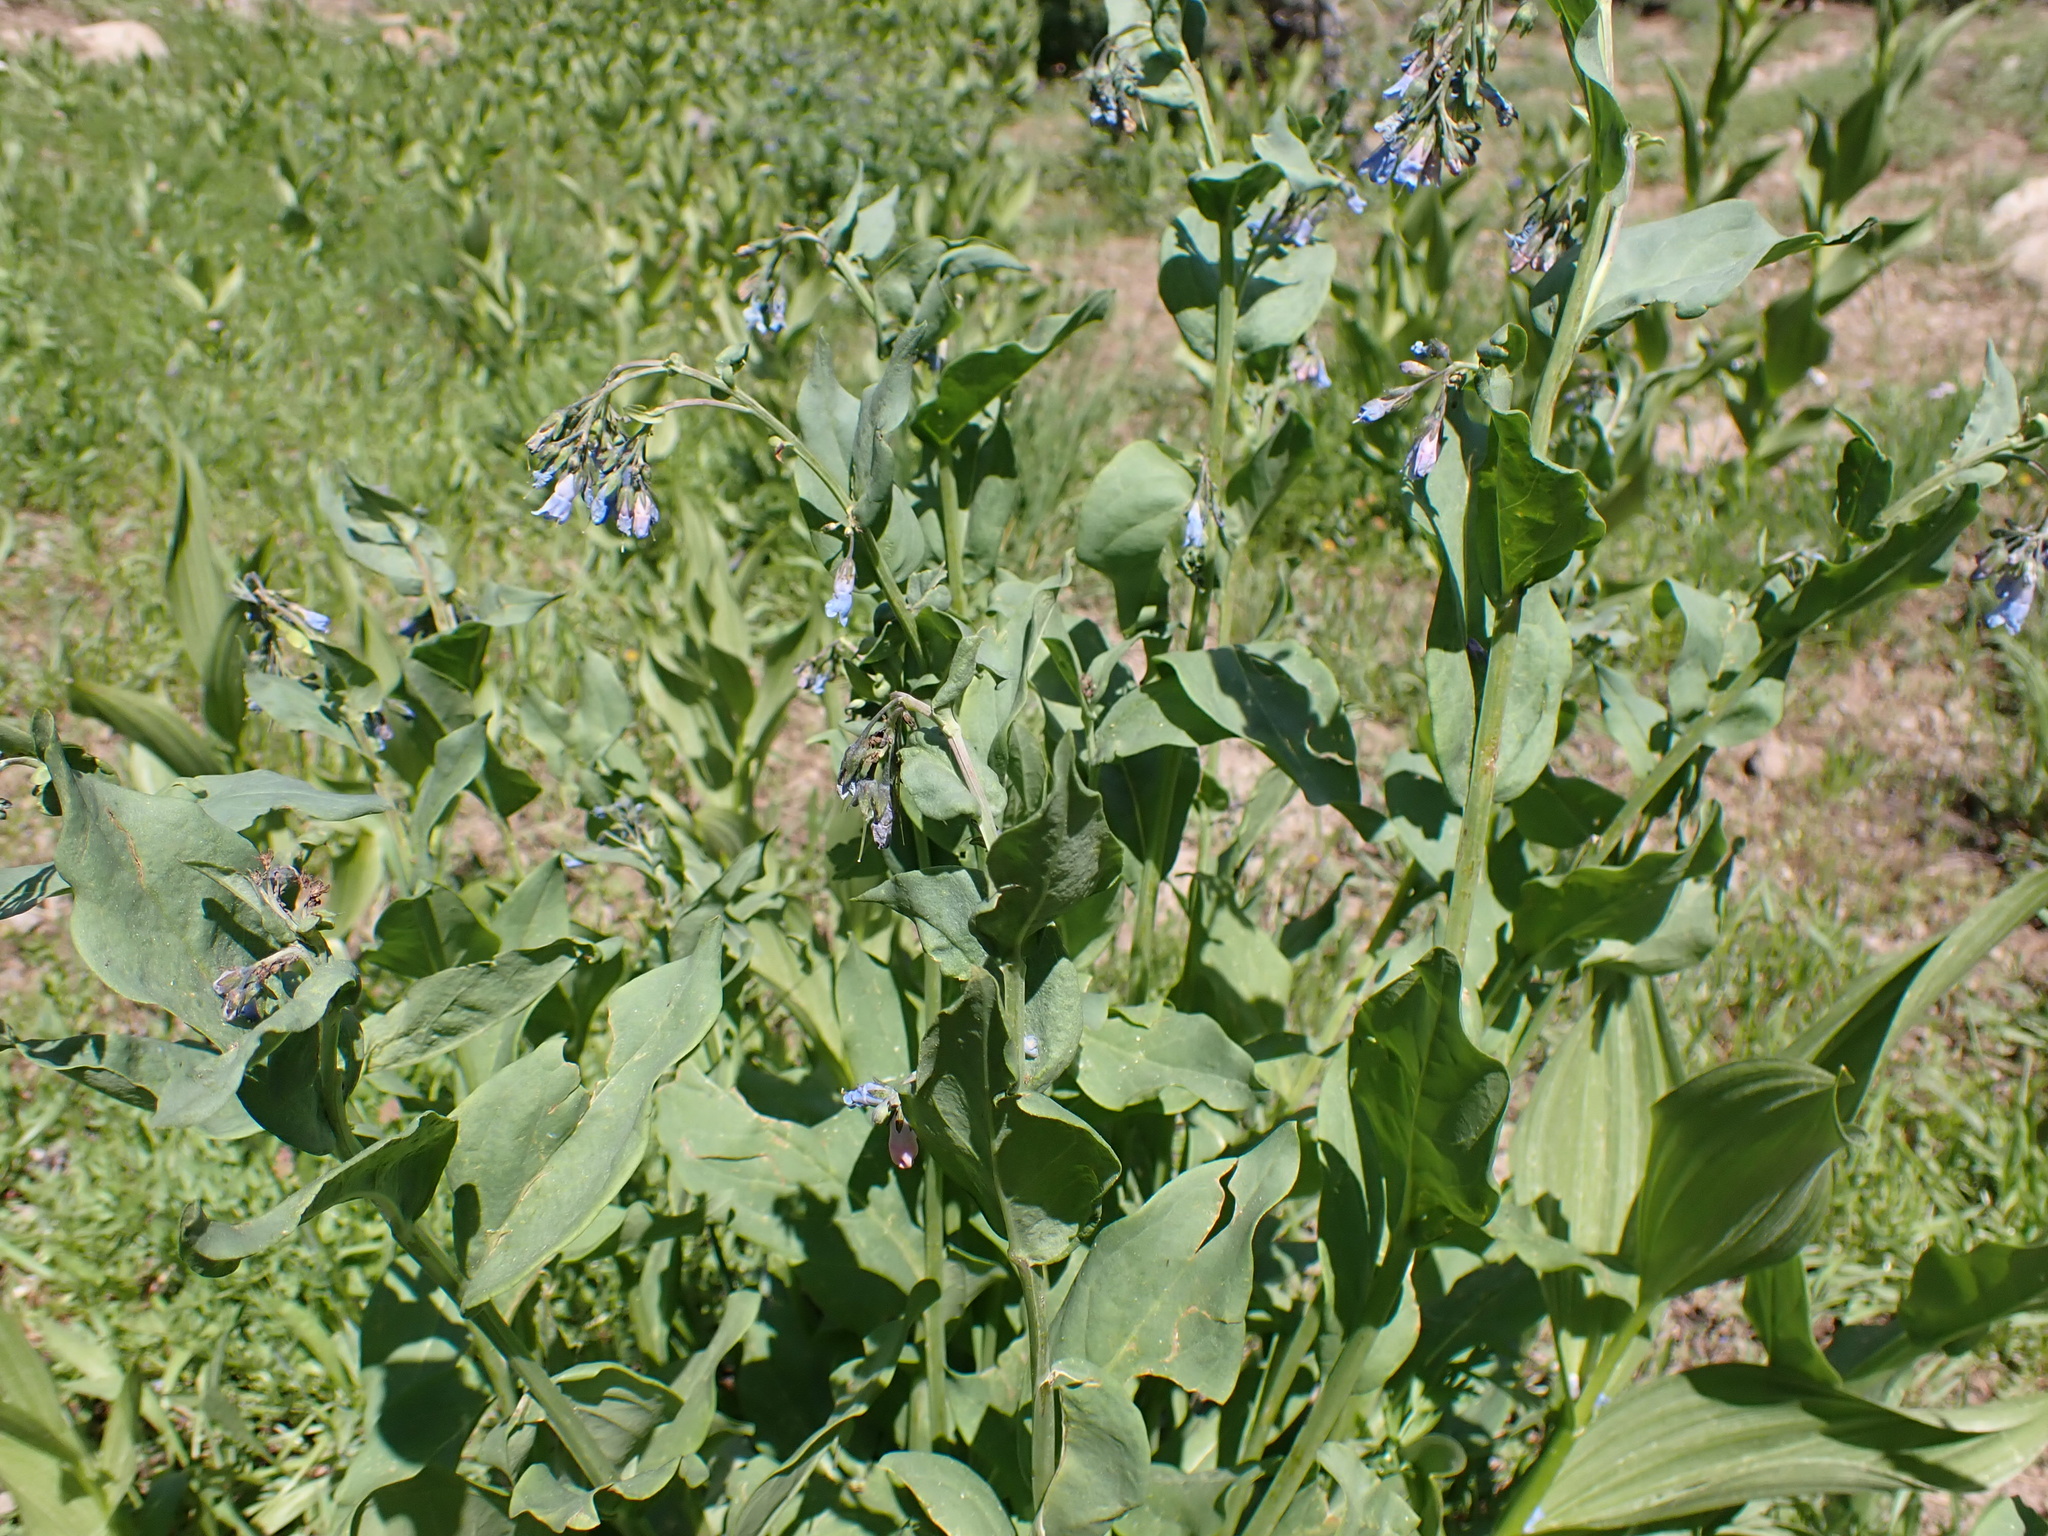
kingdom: Plantae
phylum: Tracheophyta
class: Magnoliopsida
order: Boraginales
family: Boraginaceae
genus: Mertensia
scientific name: Mertensia ciliata
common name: Tall chiming-bells
